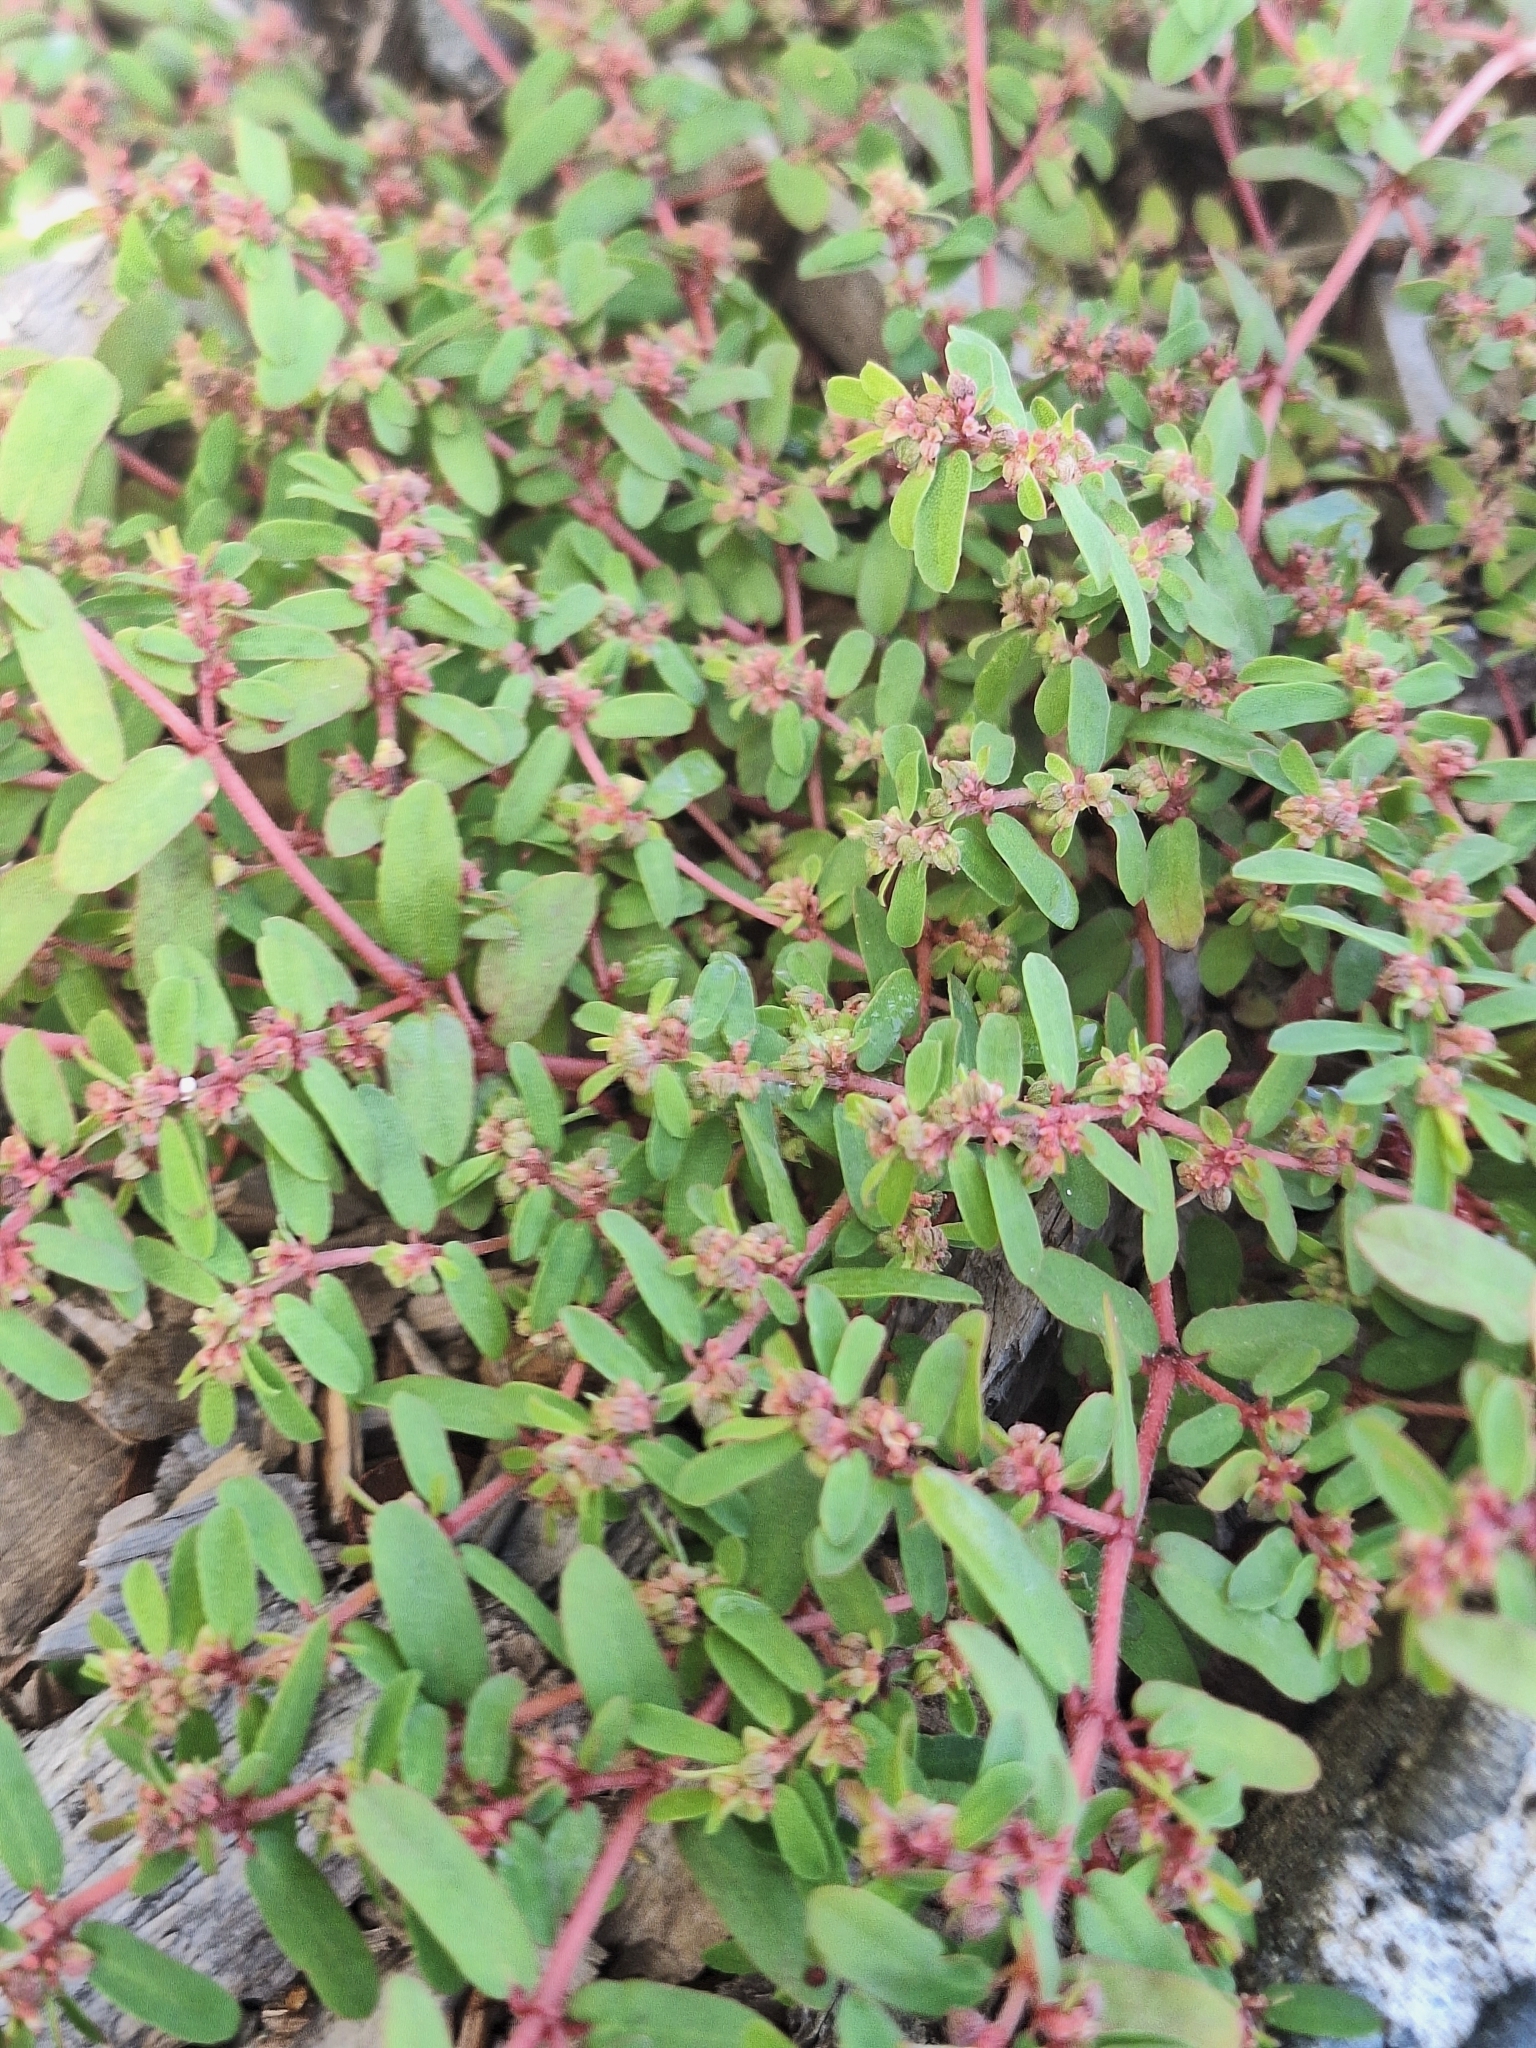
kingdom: Plantae
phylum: Tracheophyta
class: Magnoliopsida
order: Malpighiales
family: Euphorbiaceae
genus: Euphorbia
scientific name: Euphorbia maculata
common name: Spotted spurge
